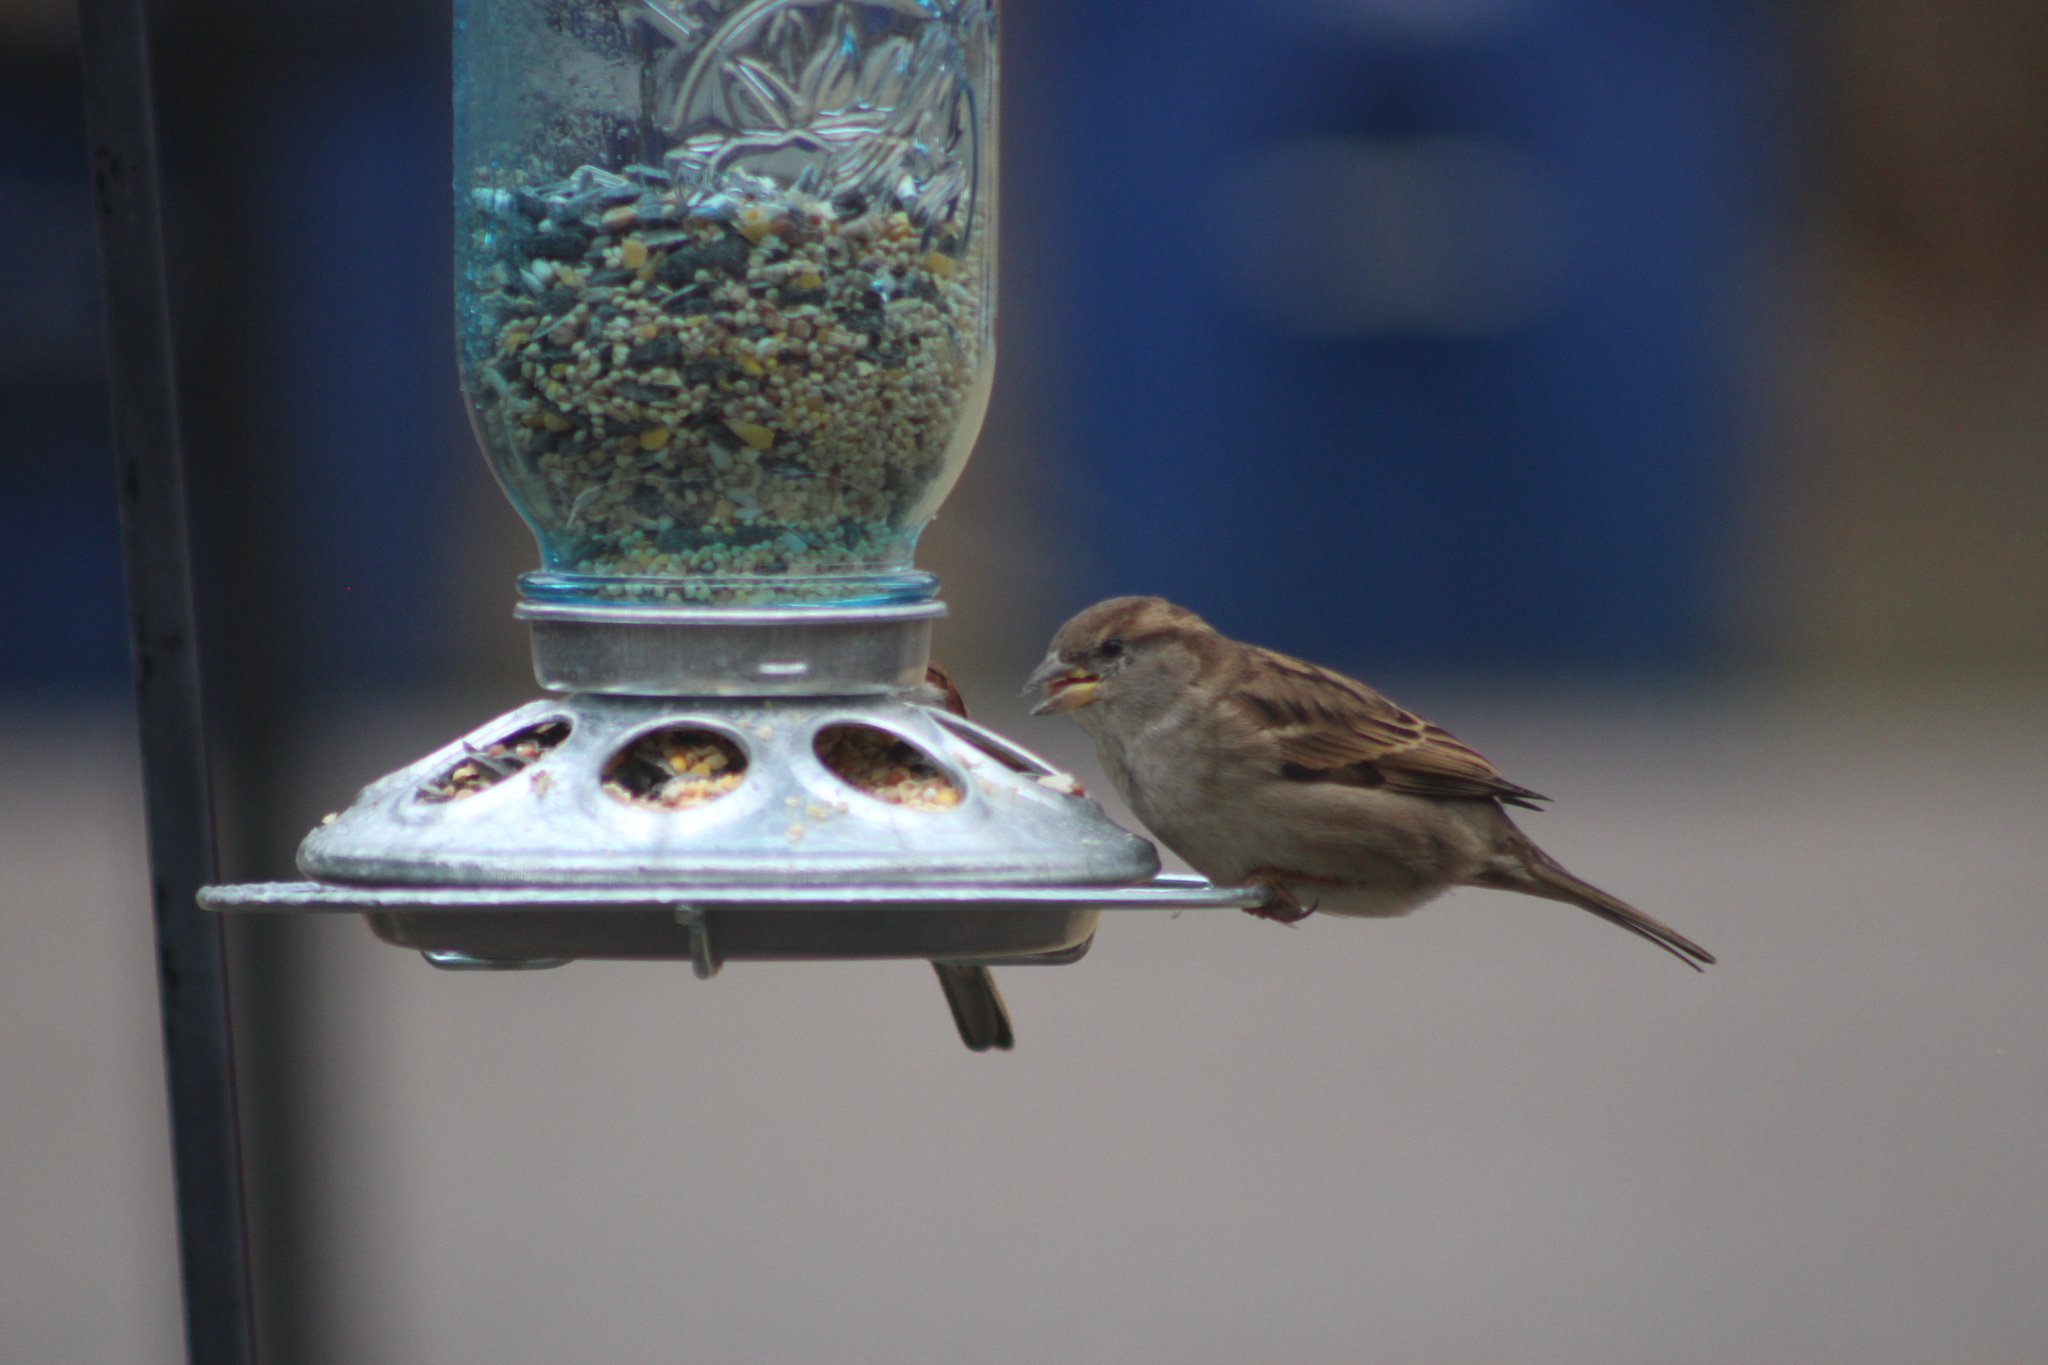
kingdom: Animalia
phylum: Chordata
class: Aves
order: Passeriformes
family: Passeridae
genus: Passer
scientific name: Passer domesticus
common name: House sparrow
